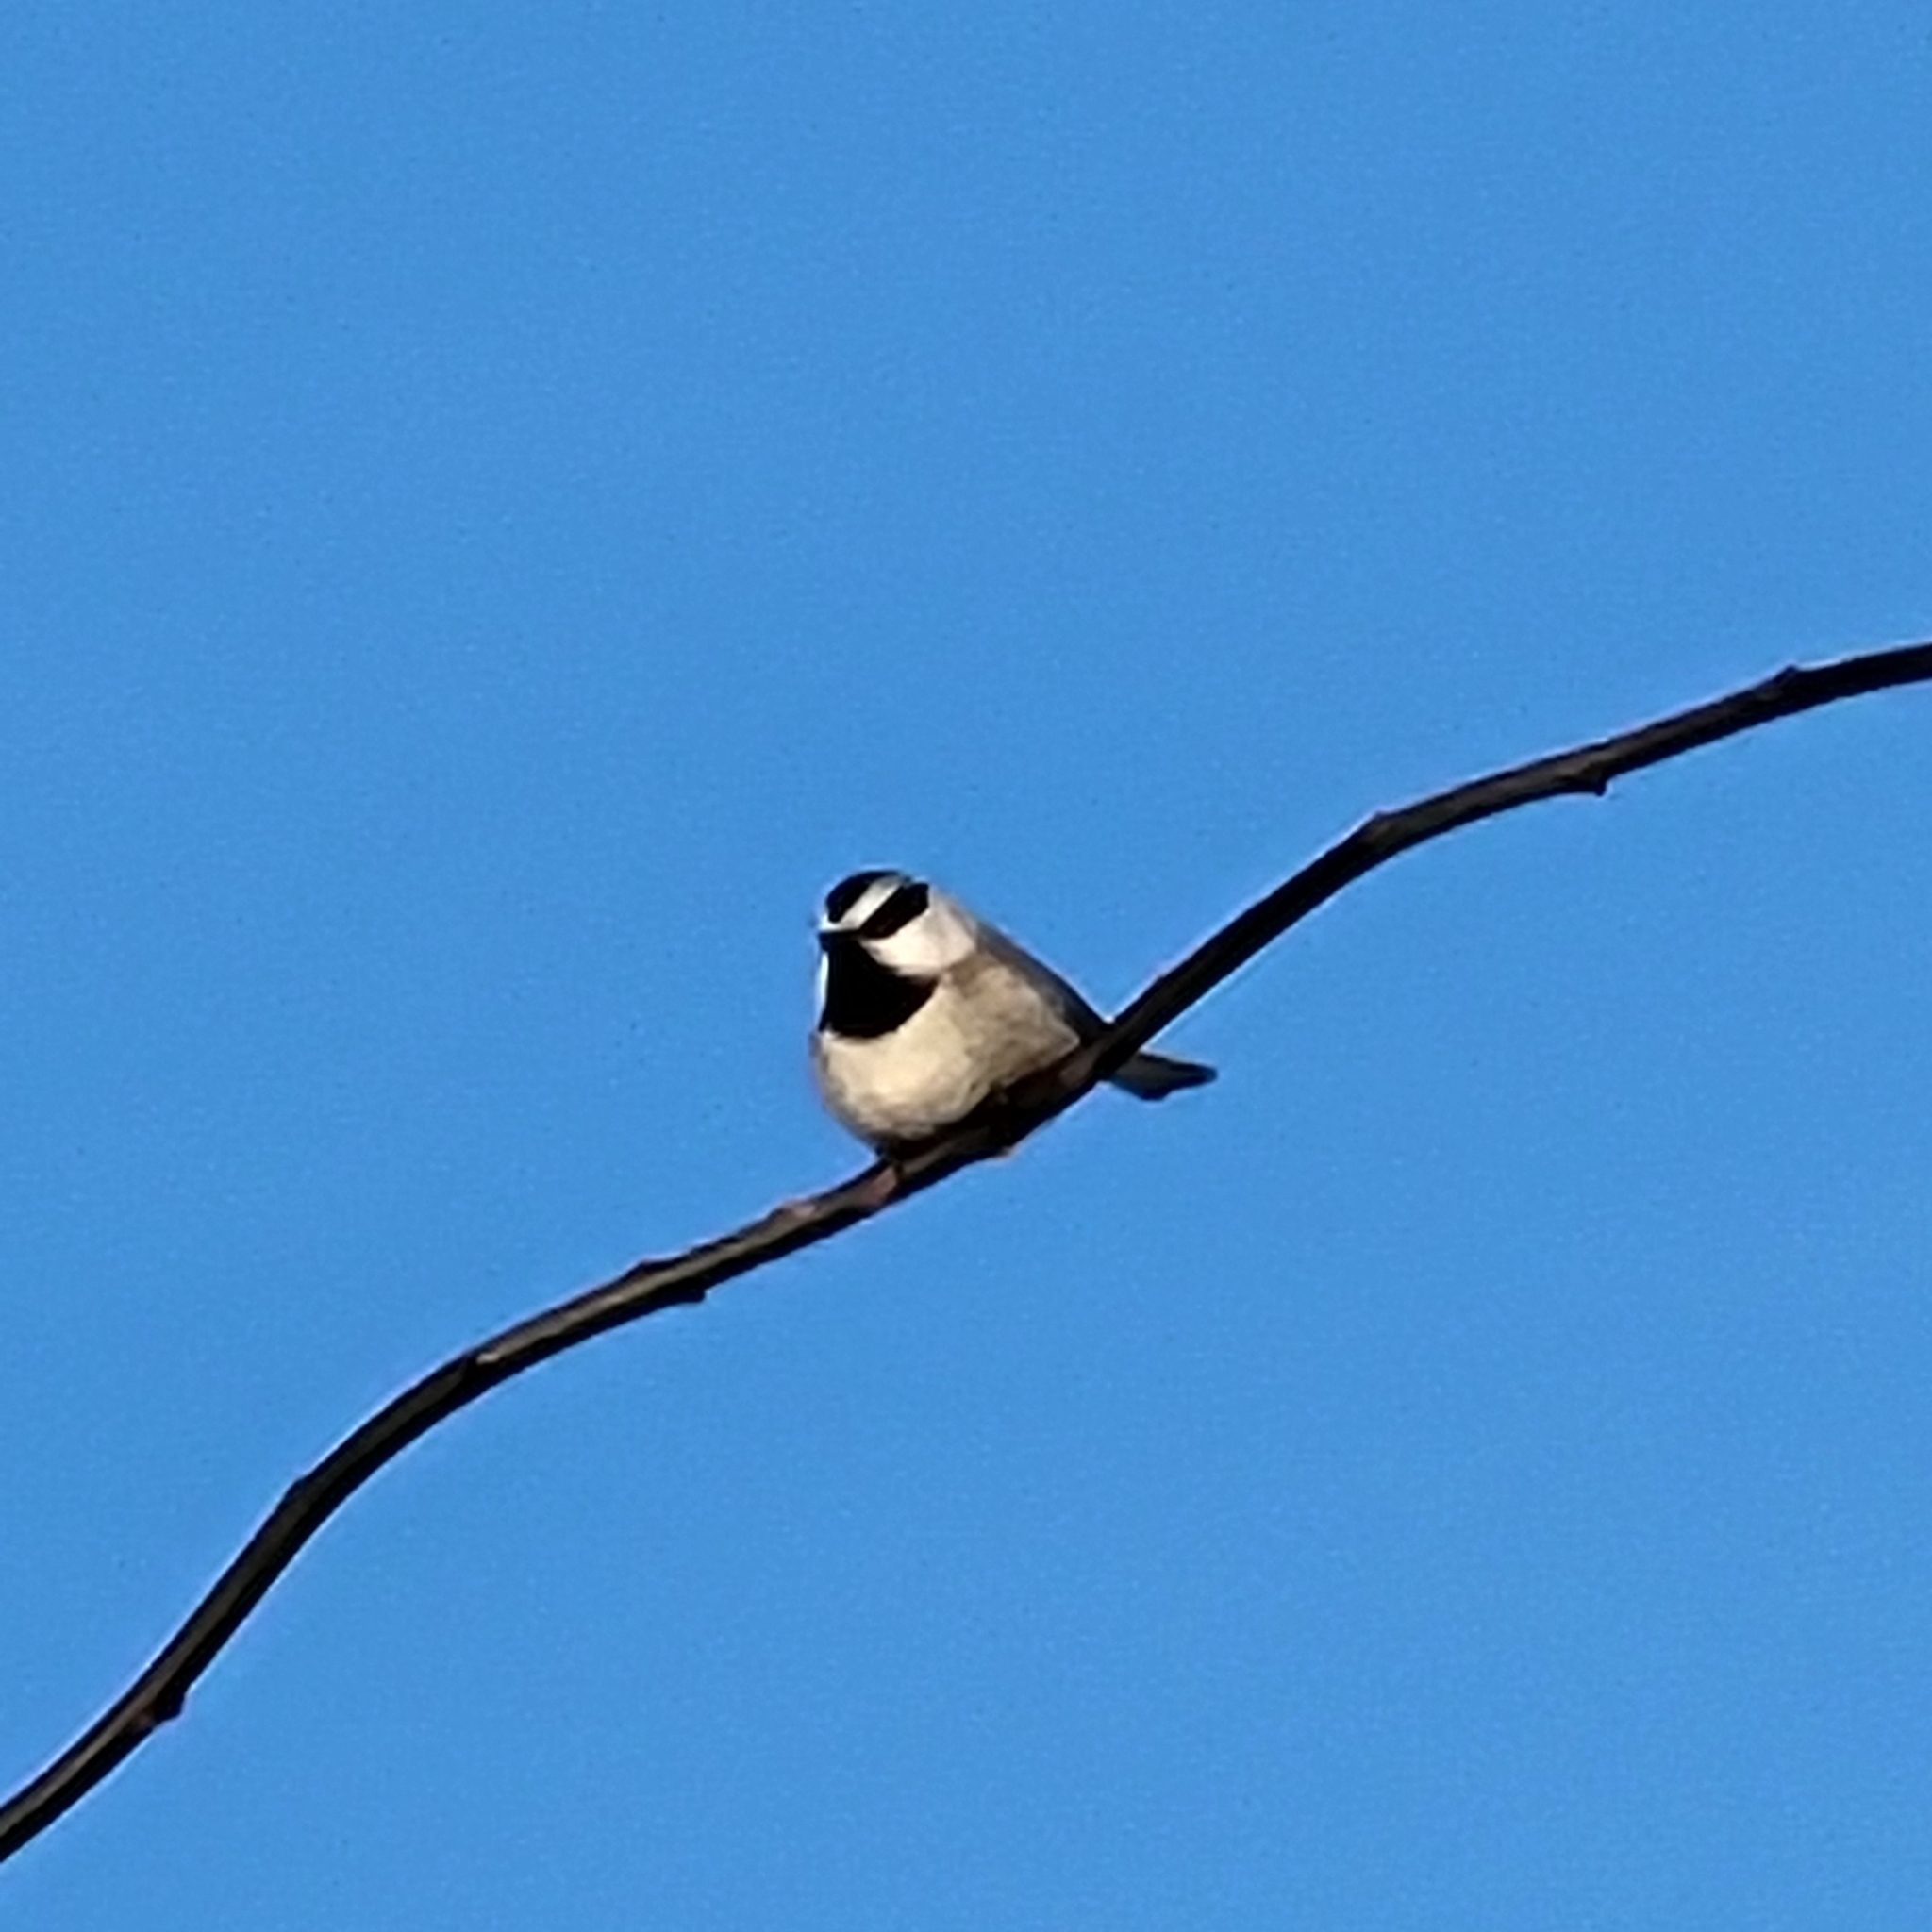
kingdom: Animalia
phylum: Chordata
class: Aves
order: Passeriformes
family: Paridae
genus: Poecile
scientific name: Poecile gambeli
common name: Mountain chickadee
